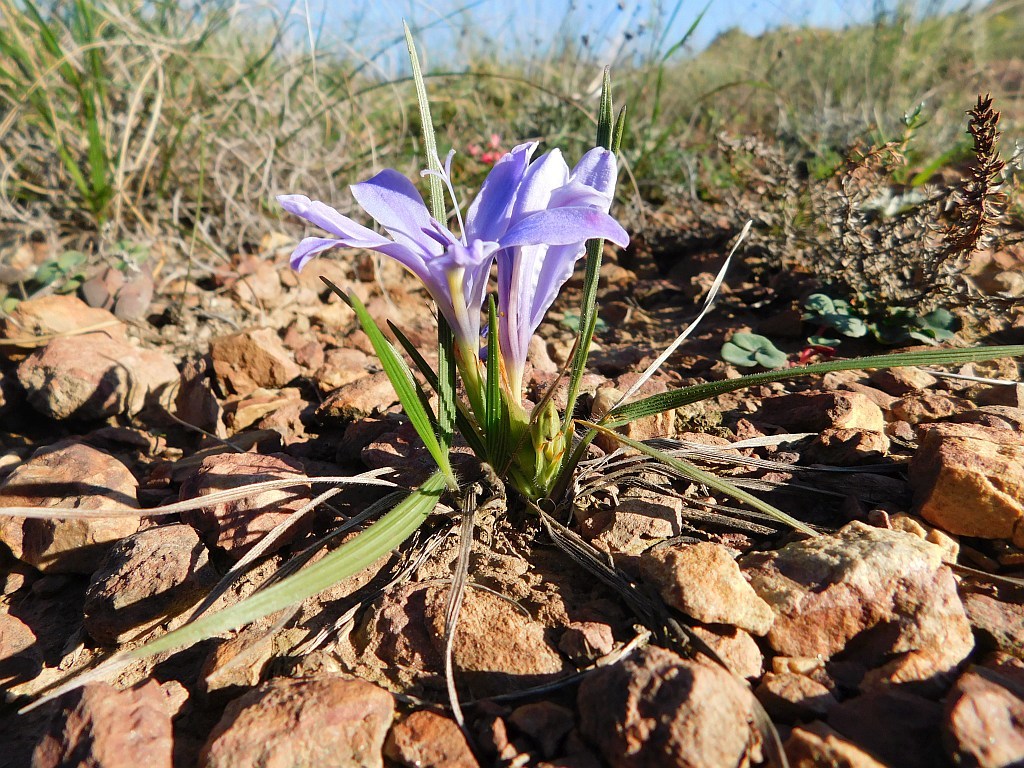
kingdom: Plantae
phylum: Tracheophyta
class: Liliopsida
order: Asparagales
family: Iridaceae
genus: Babiana
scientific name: Babiana ambigua
